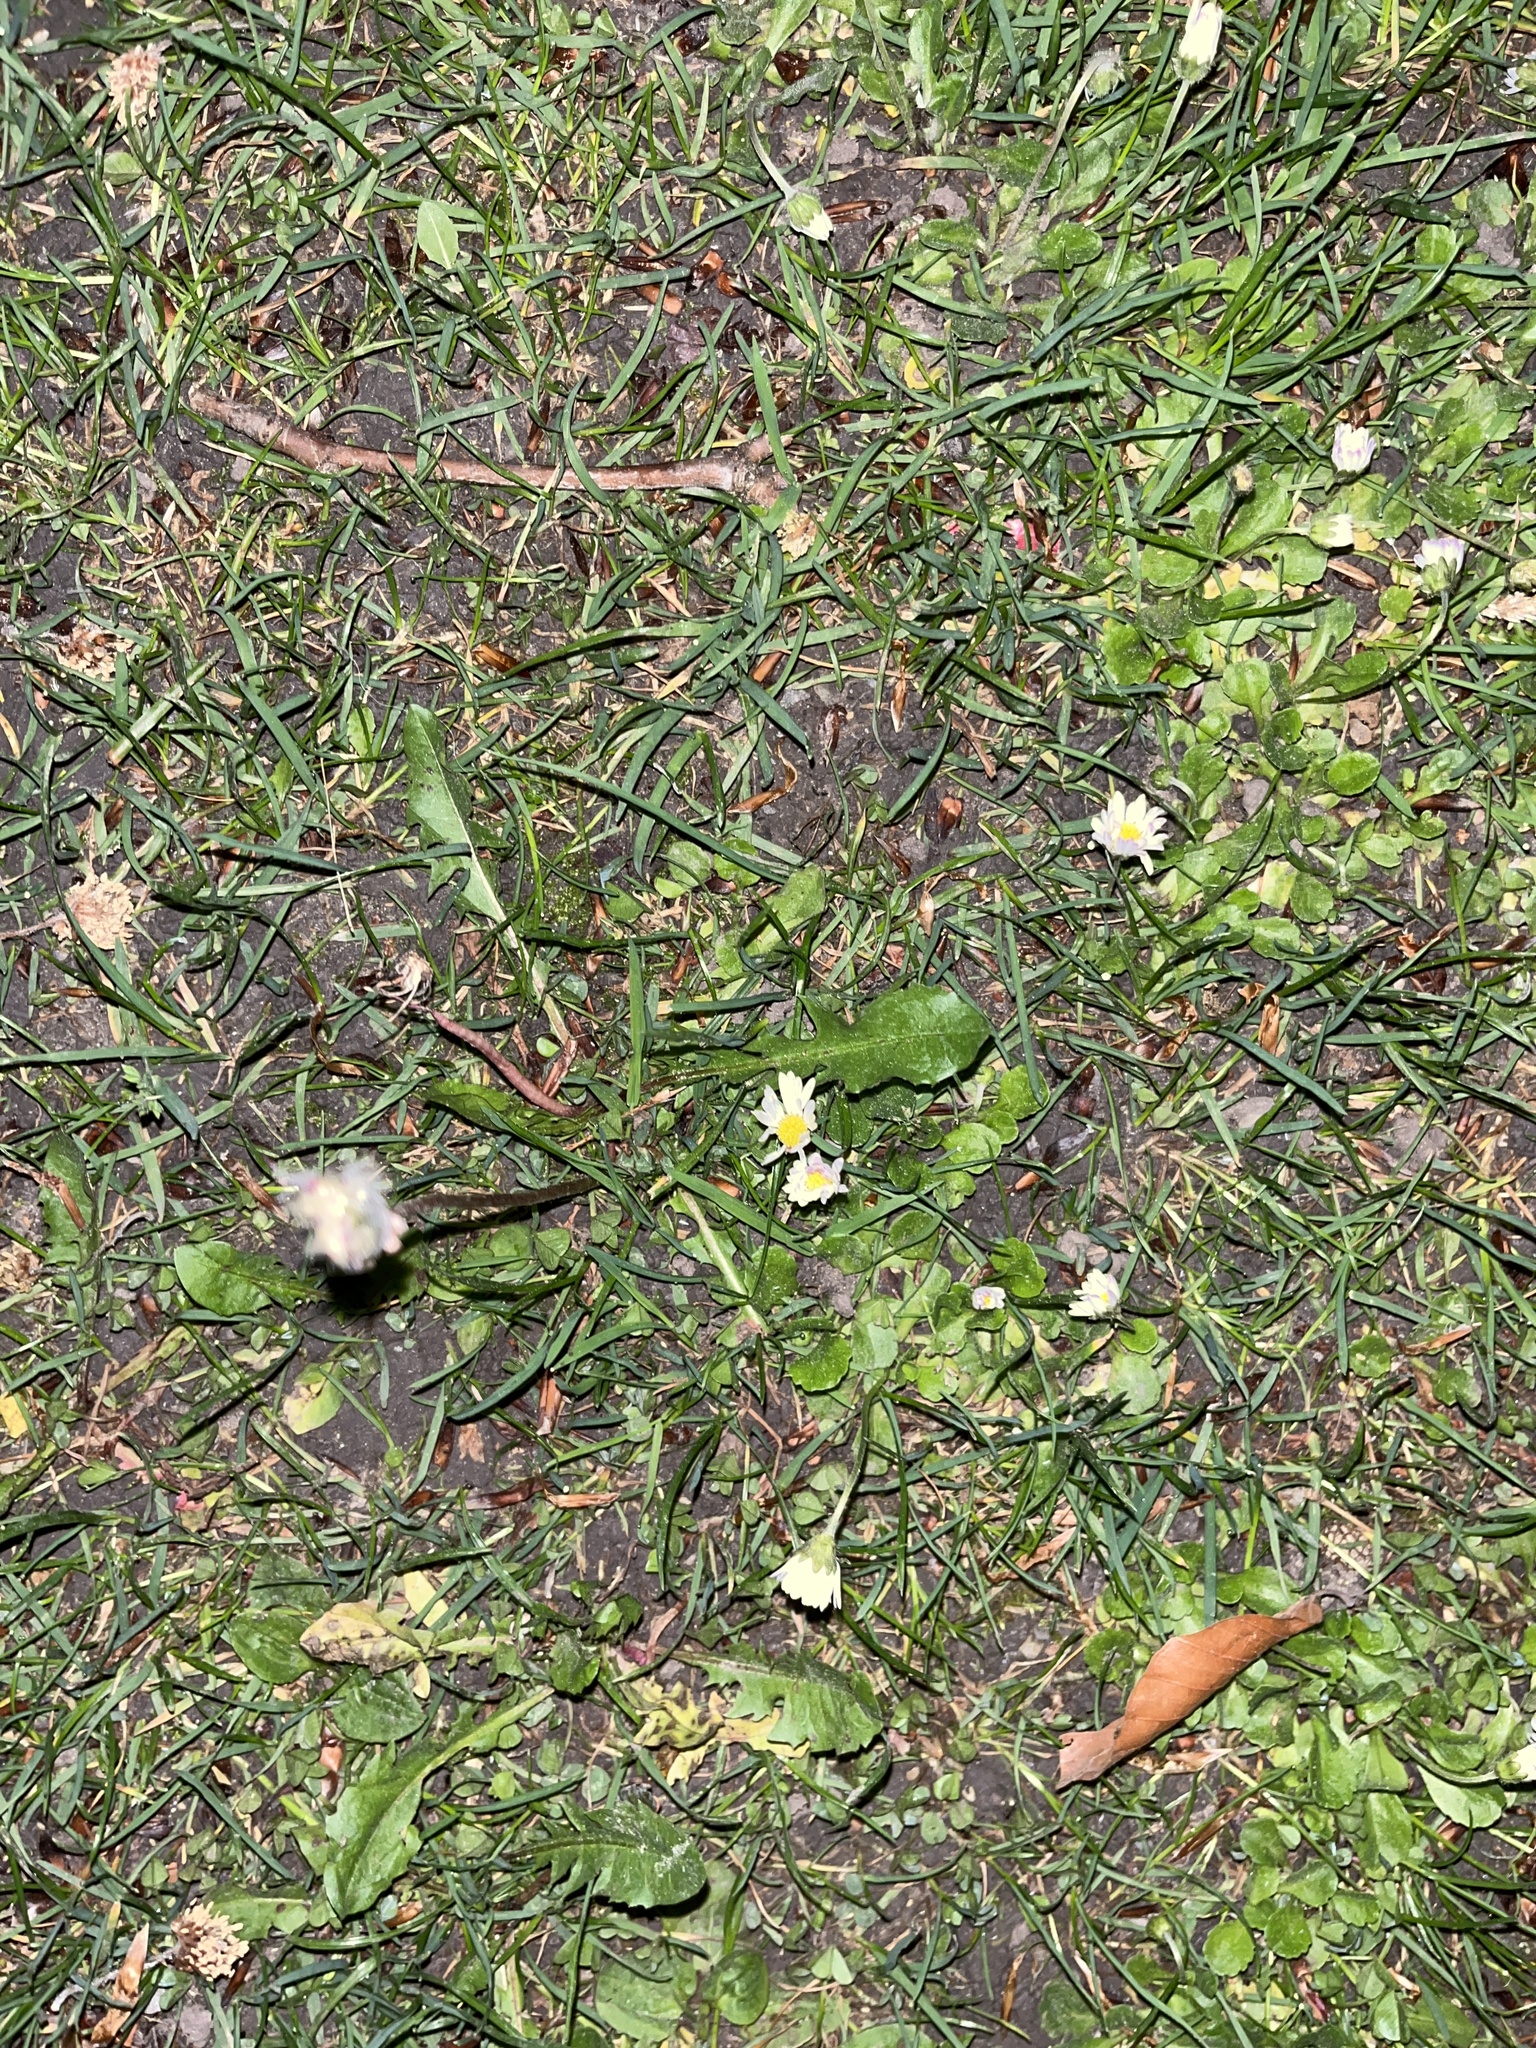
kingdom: Plantae
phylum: Tracheophyta
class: Magnoliopsida
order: Asterales
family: Asteraceae
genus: Bellis
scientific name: Bellis perennis
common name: Lawndaisy
